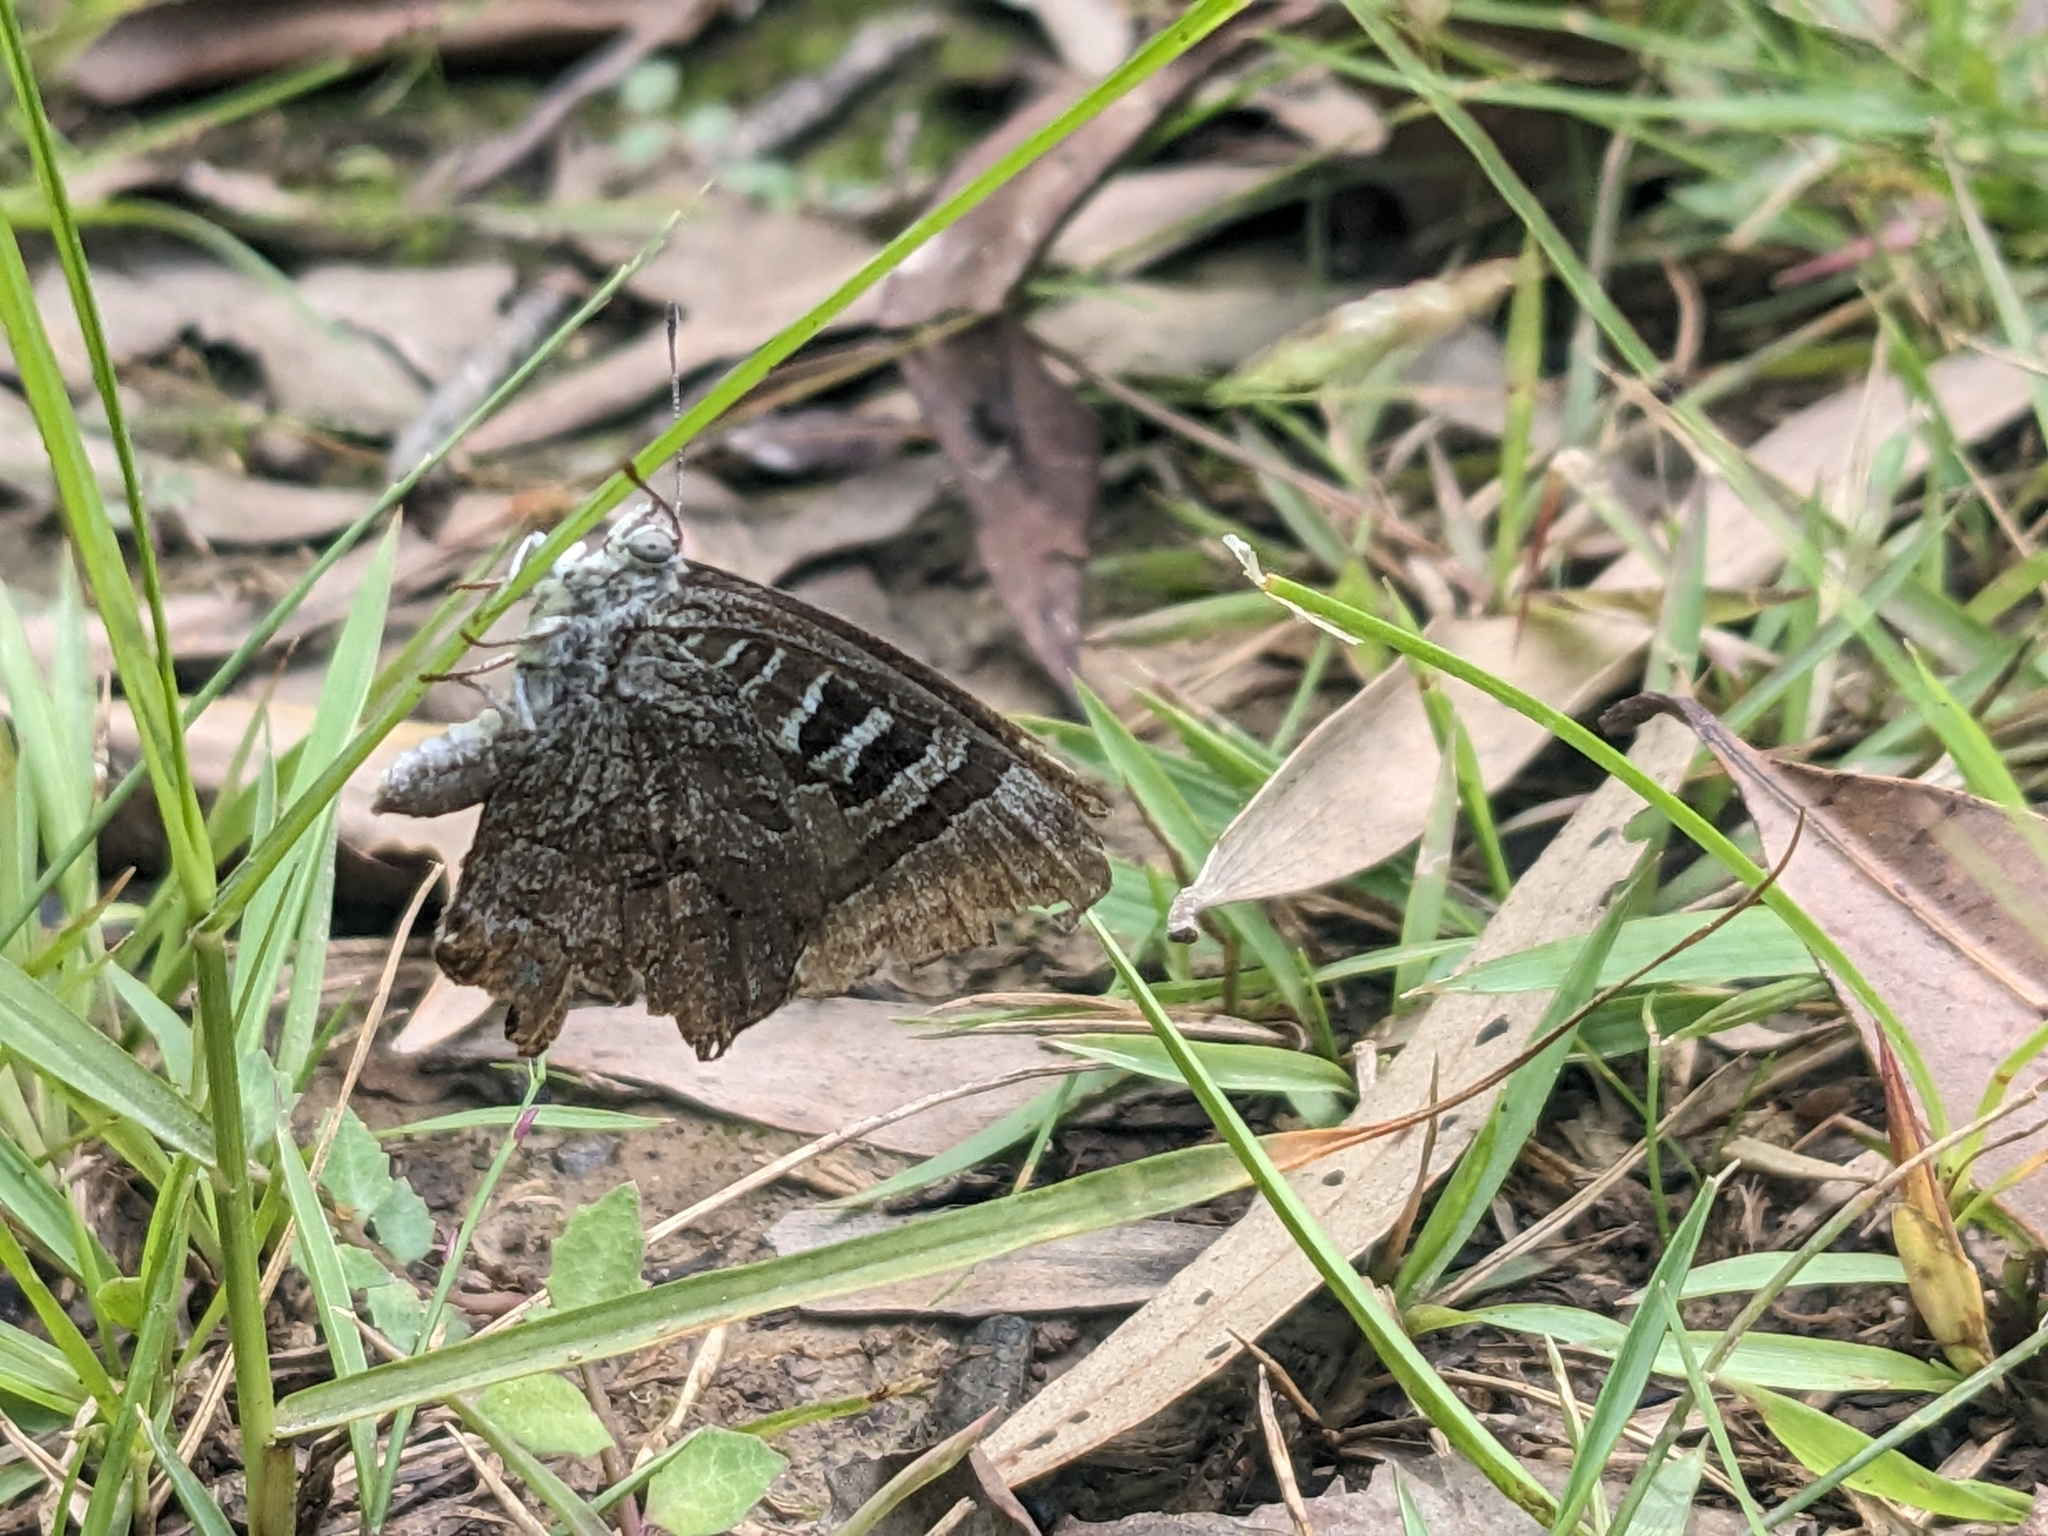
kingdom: Animalia
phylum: Arthropoda
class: Insecta
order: Lepidoptera
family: Lycaenidae
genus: Ogyris
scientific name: Ogyris oroetes
